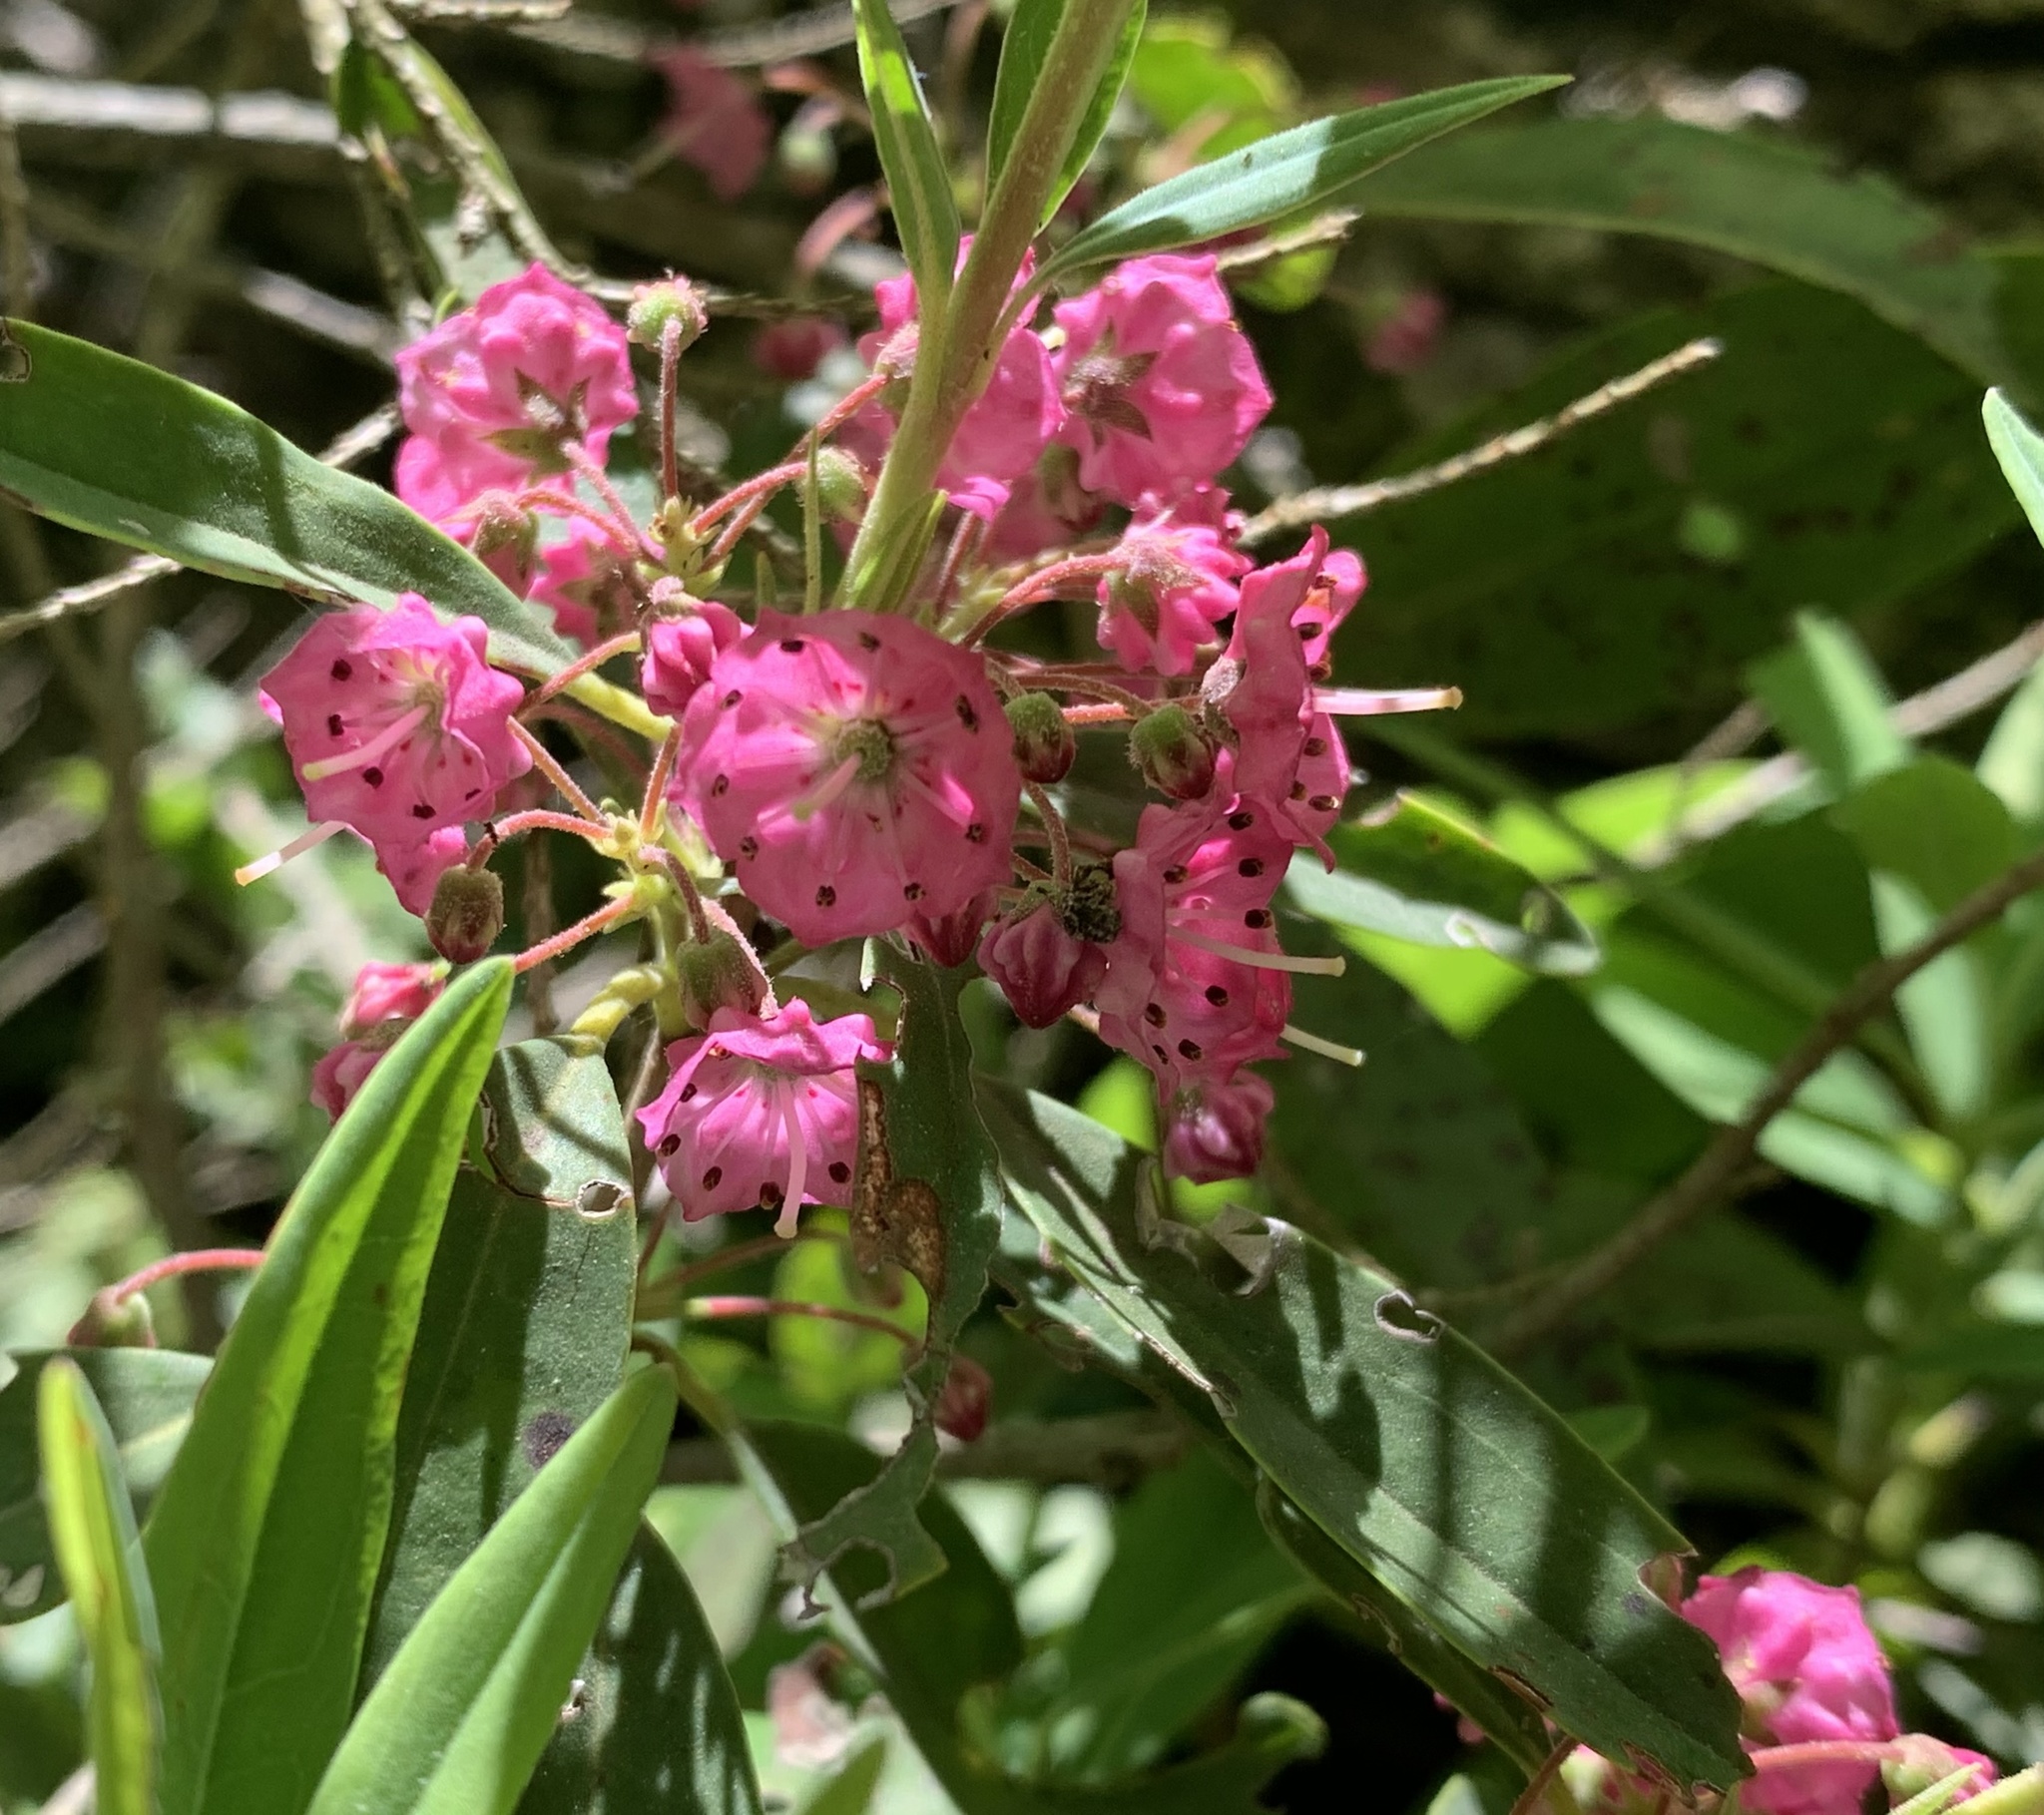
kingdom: Plantae
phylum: Tracheophyta
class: Magnoliopsida
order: Ericales
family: Ericaceae
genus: Kalmia
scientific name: Kalmia angustifolia
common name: Sheep-laurel
